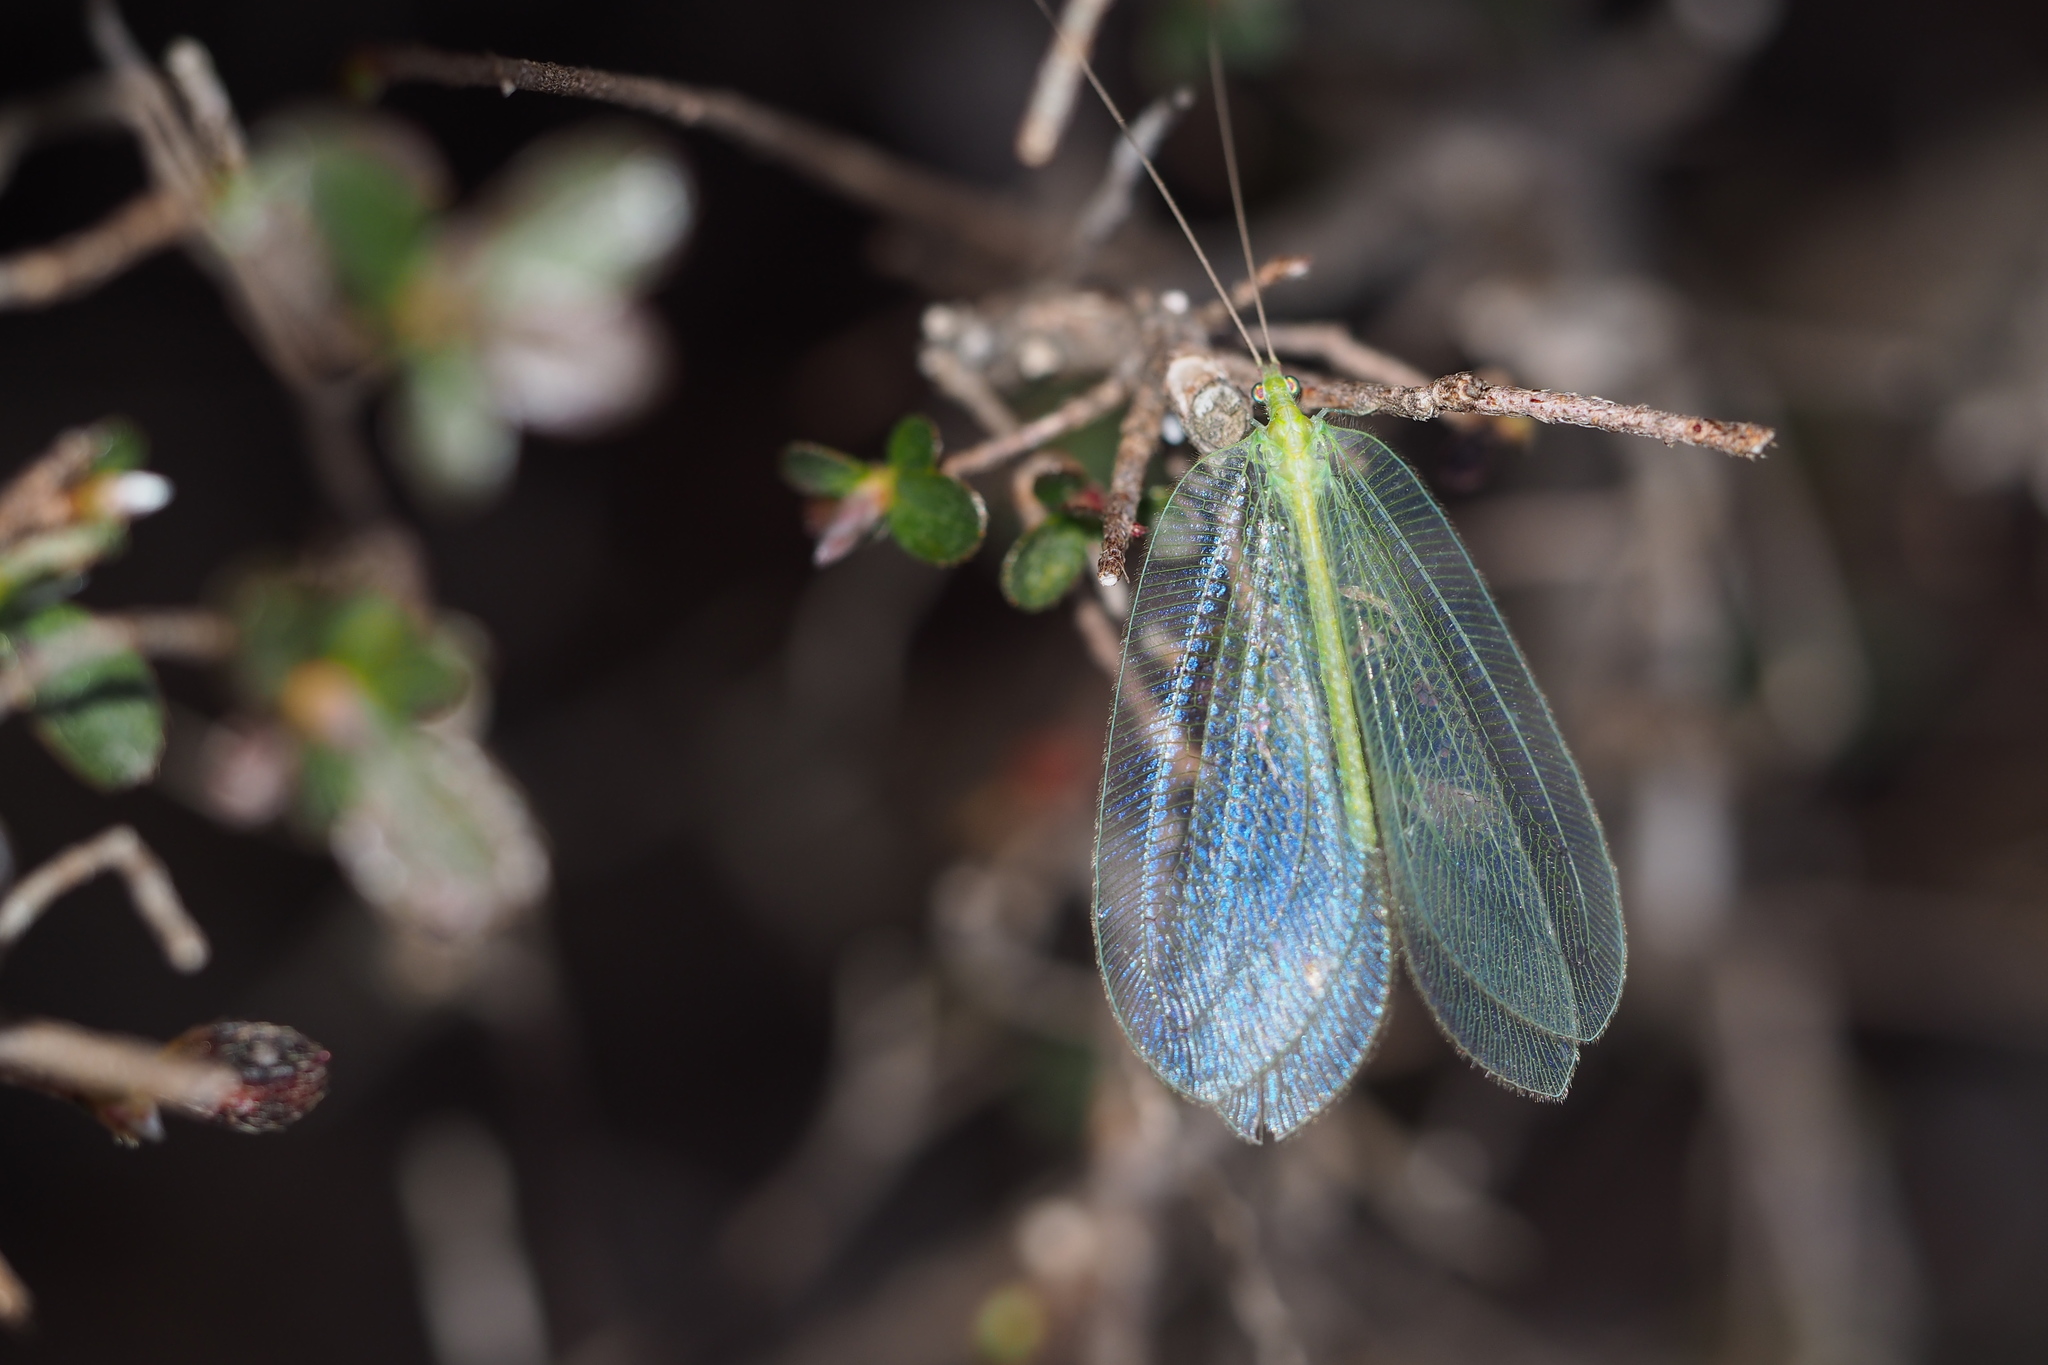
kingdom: Animalia
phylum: Arthropoda
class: Insecta
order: Neuroptera
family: Chrysopidae
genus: Apochrysa
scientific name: Apochrysa matsumurae
